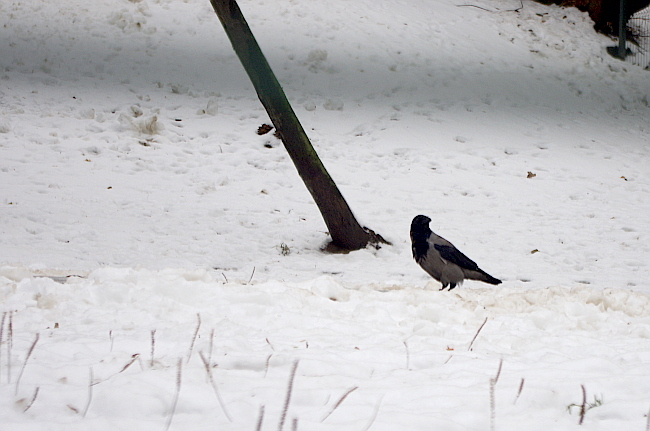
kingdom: Animalia
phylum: Chordata
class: Aves
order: Passeriformes
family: Corvidae
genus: Corvus
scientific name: Corvus cornix
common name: Hooded crow
